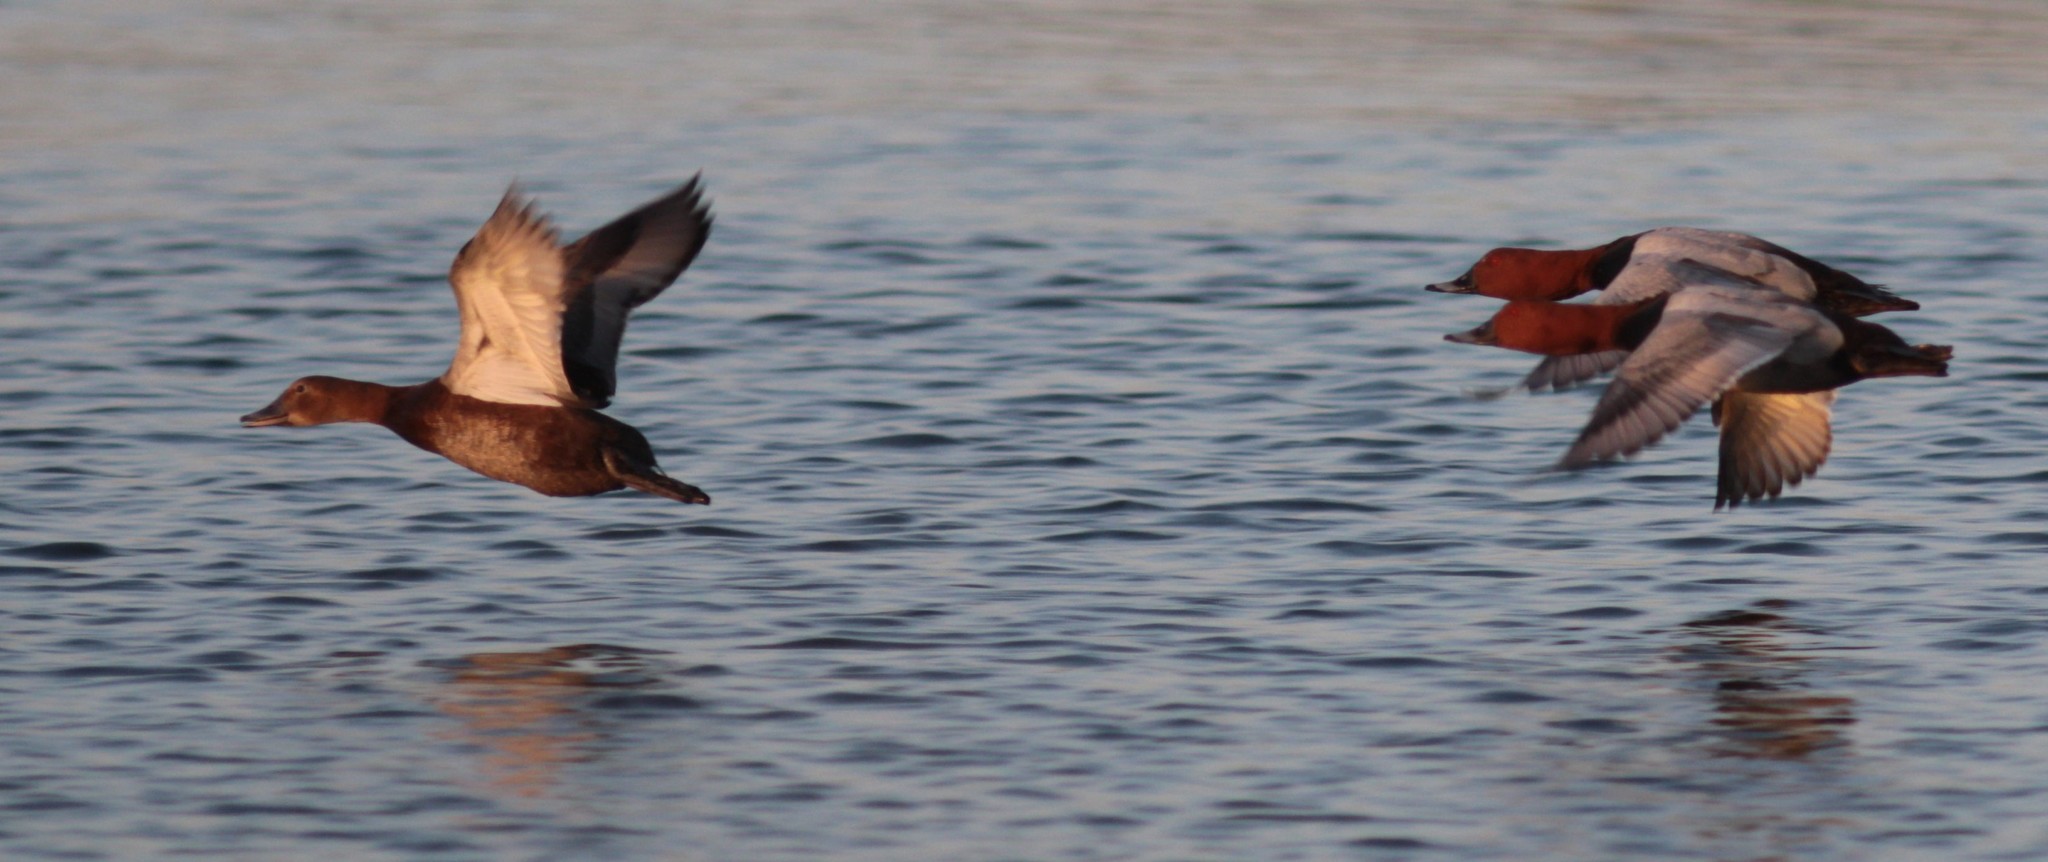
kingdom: Animalia
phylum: Chordata
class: Aves
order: Anseriformes
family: Anatidae
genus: Aythya
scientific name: Aythya ferina
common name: Common pochard
